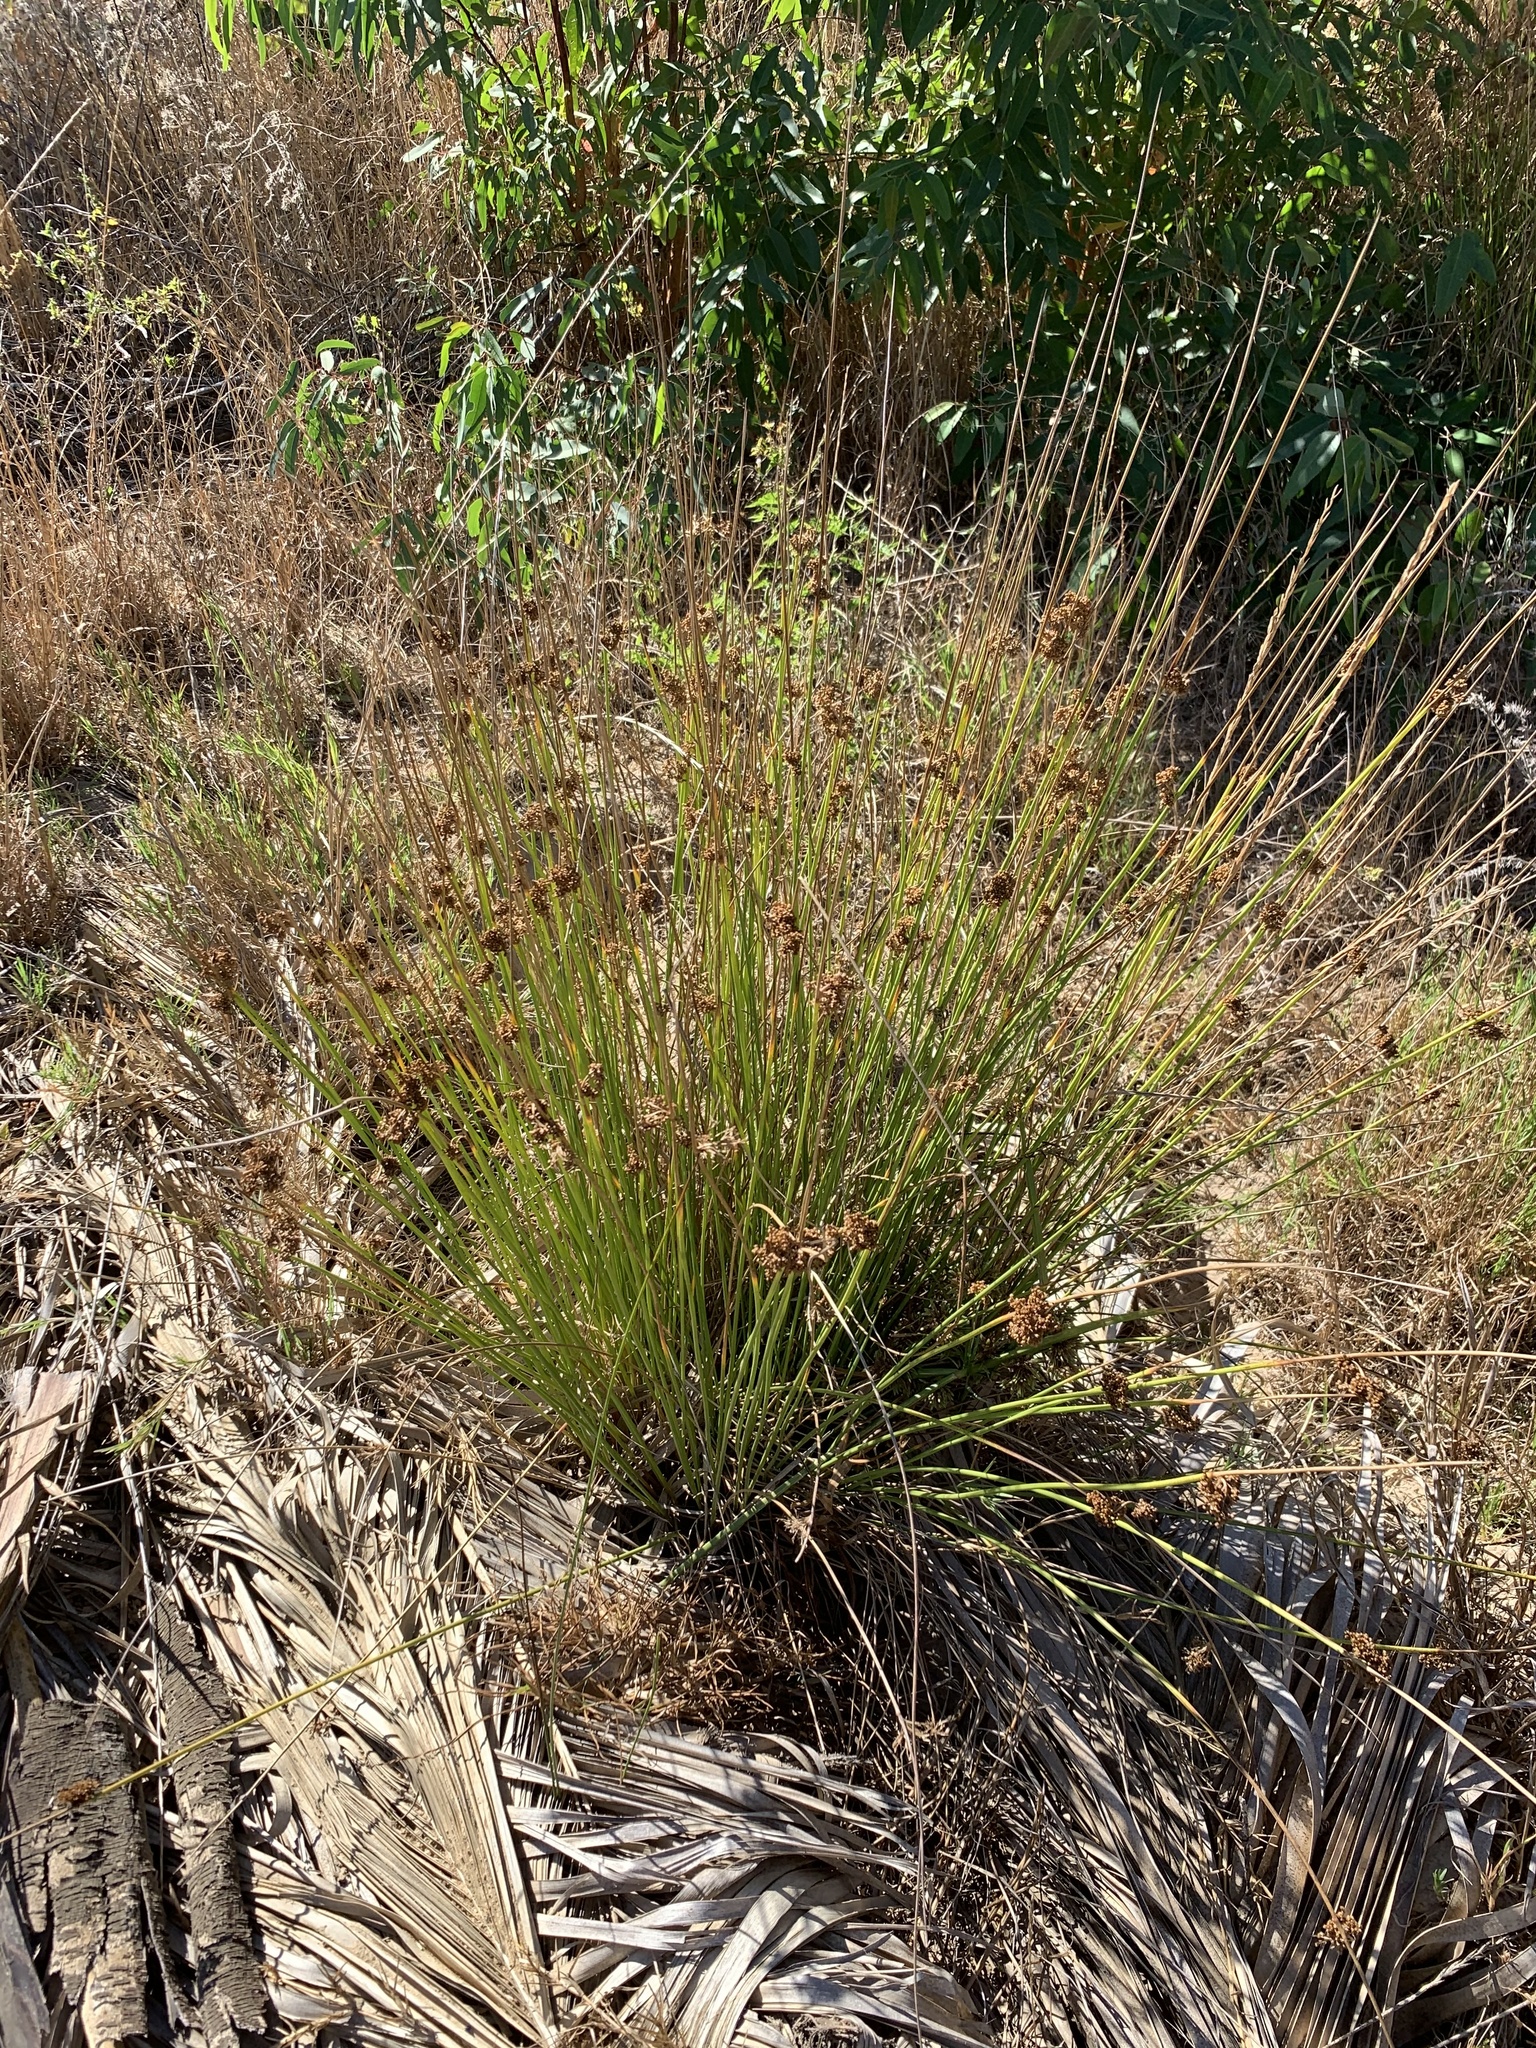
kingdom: Plantae
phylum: Tracheophyta
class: Liliopsida
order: Poales
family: Juncaceae
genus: Juncus
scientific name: Juncus effusus
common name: Soft rush
